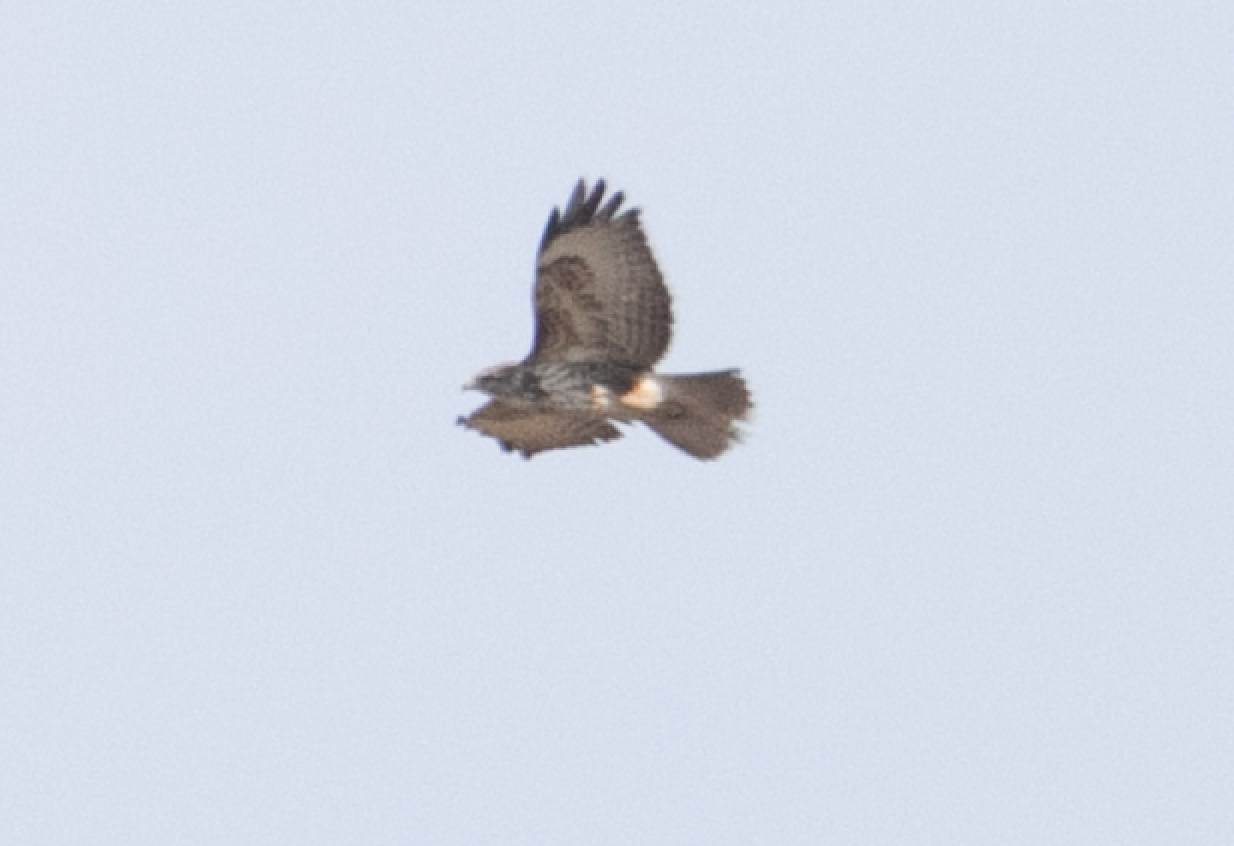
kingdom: Animalia
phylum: Chordata
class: Aves
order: Accipitriformes
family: Accipitridae
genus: Buteo
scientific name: Buteo buteo
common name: Common buzzard
